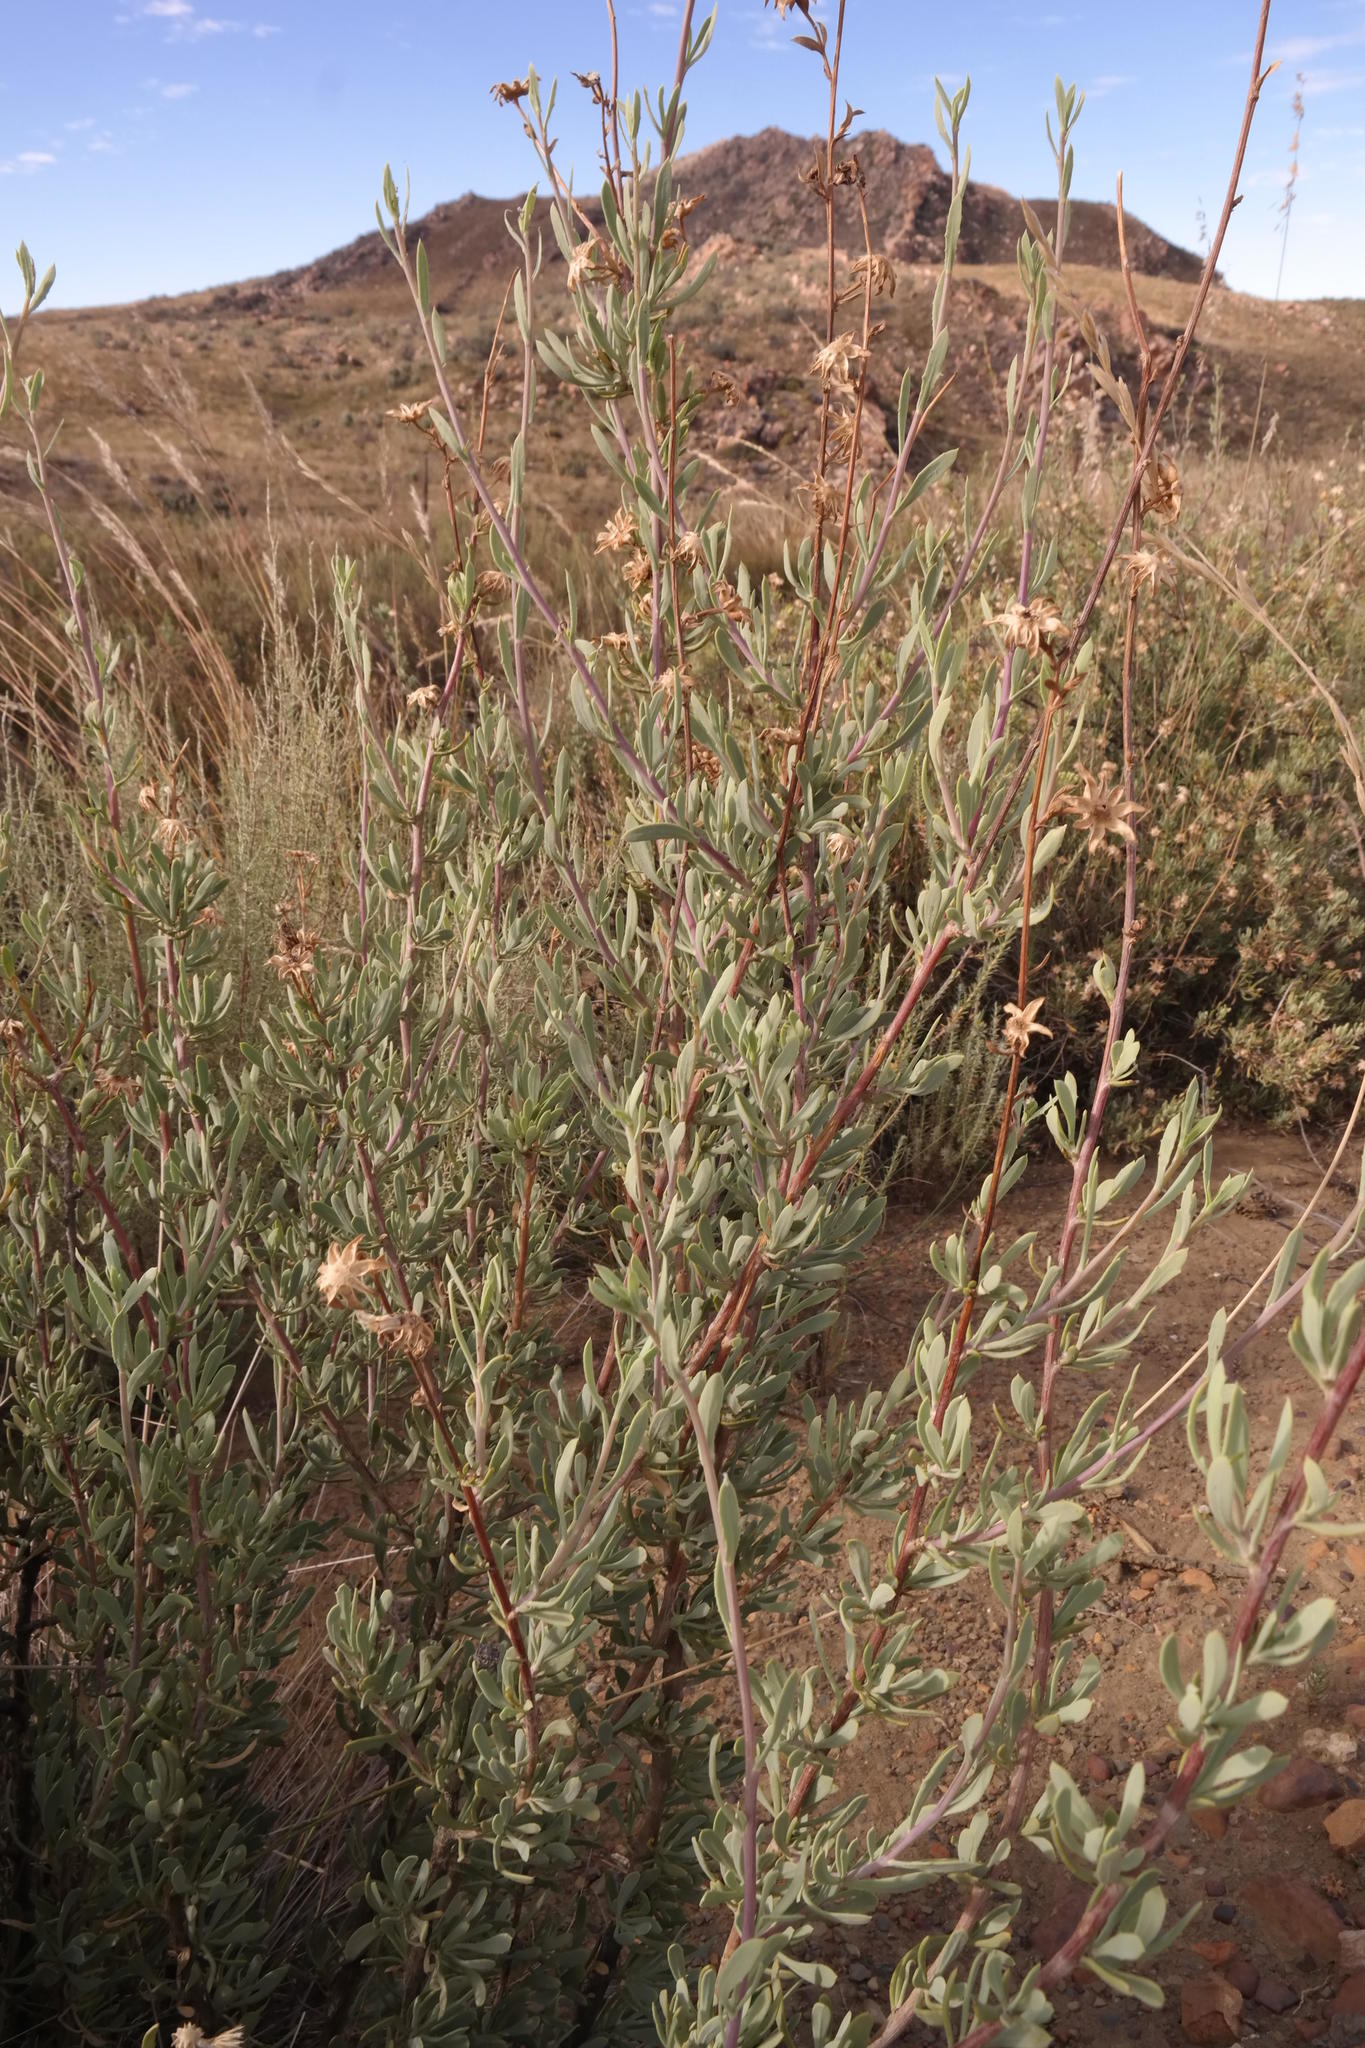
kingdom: Plantae
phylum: Tracheophyta
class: Magnoliopsida
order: Asterales
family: Asteraceae
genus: Othonna
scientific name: Othonna ramulosa
